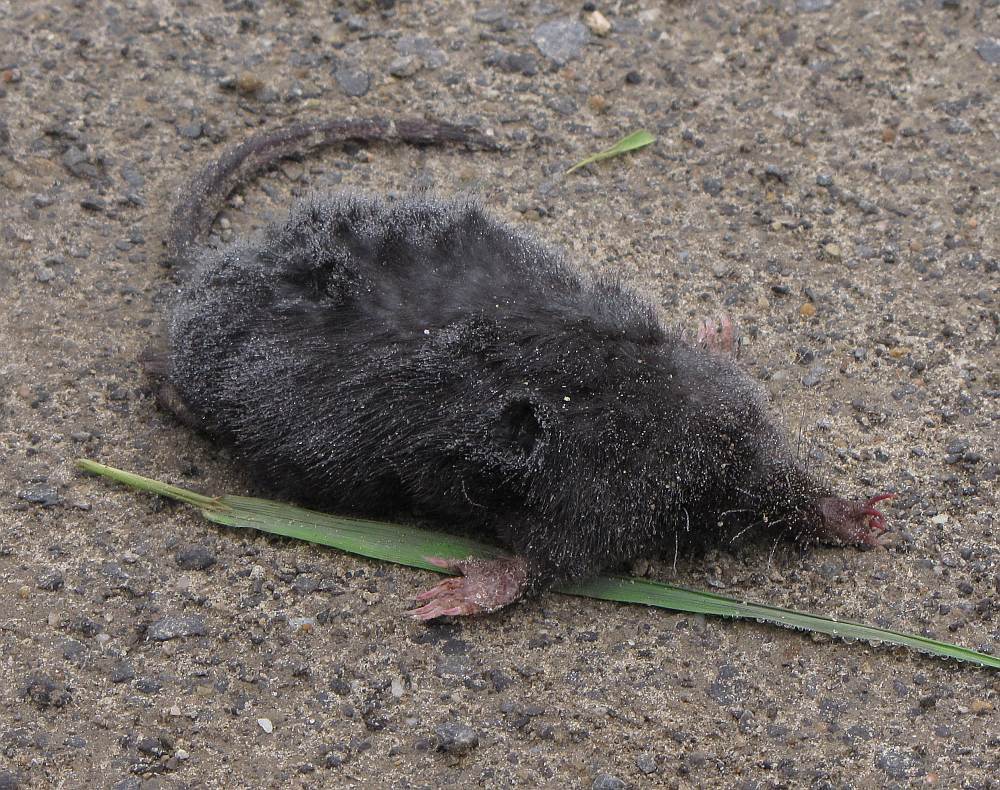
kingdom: Animalia
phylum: Chordata
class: Mammalia
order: Soricomorpha
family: Talpidae
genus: Condylura
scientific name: Condylura cristata
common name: Star-nosed mole
